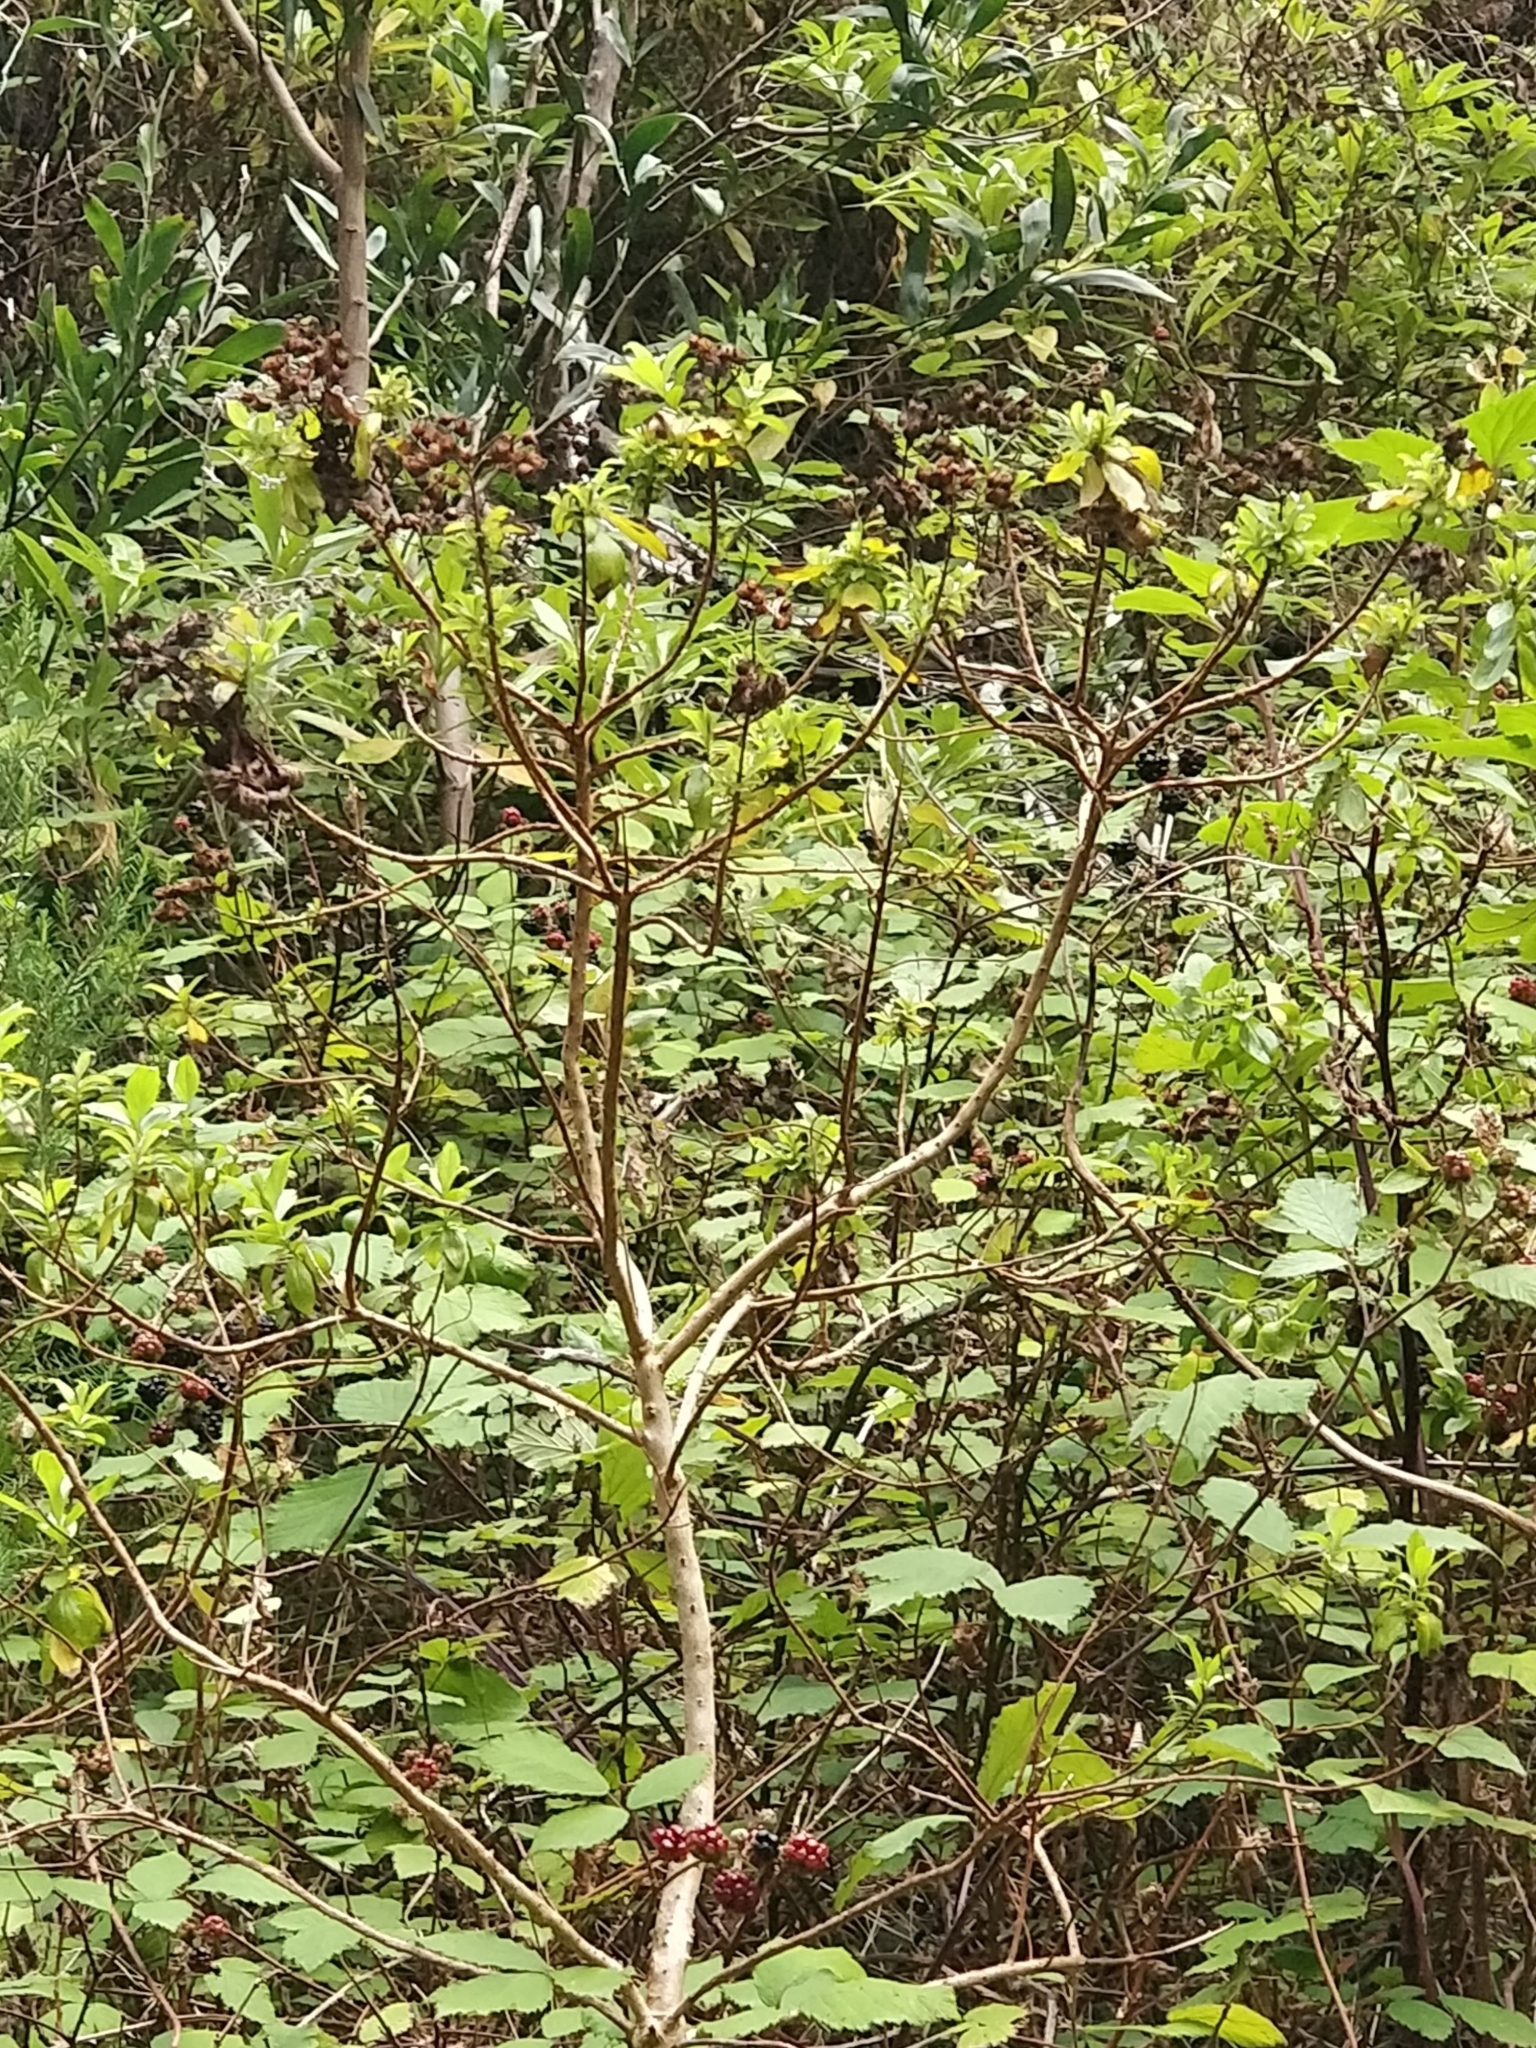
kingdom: Plantae
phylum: Tracheophyta
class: Magnoliopsida
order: Malpighiales
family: Hypericaceae
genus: Hypericum
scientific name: Hypericum glandulosum
